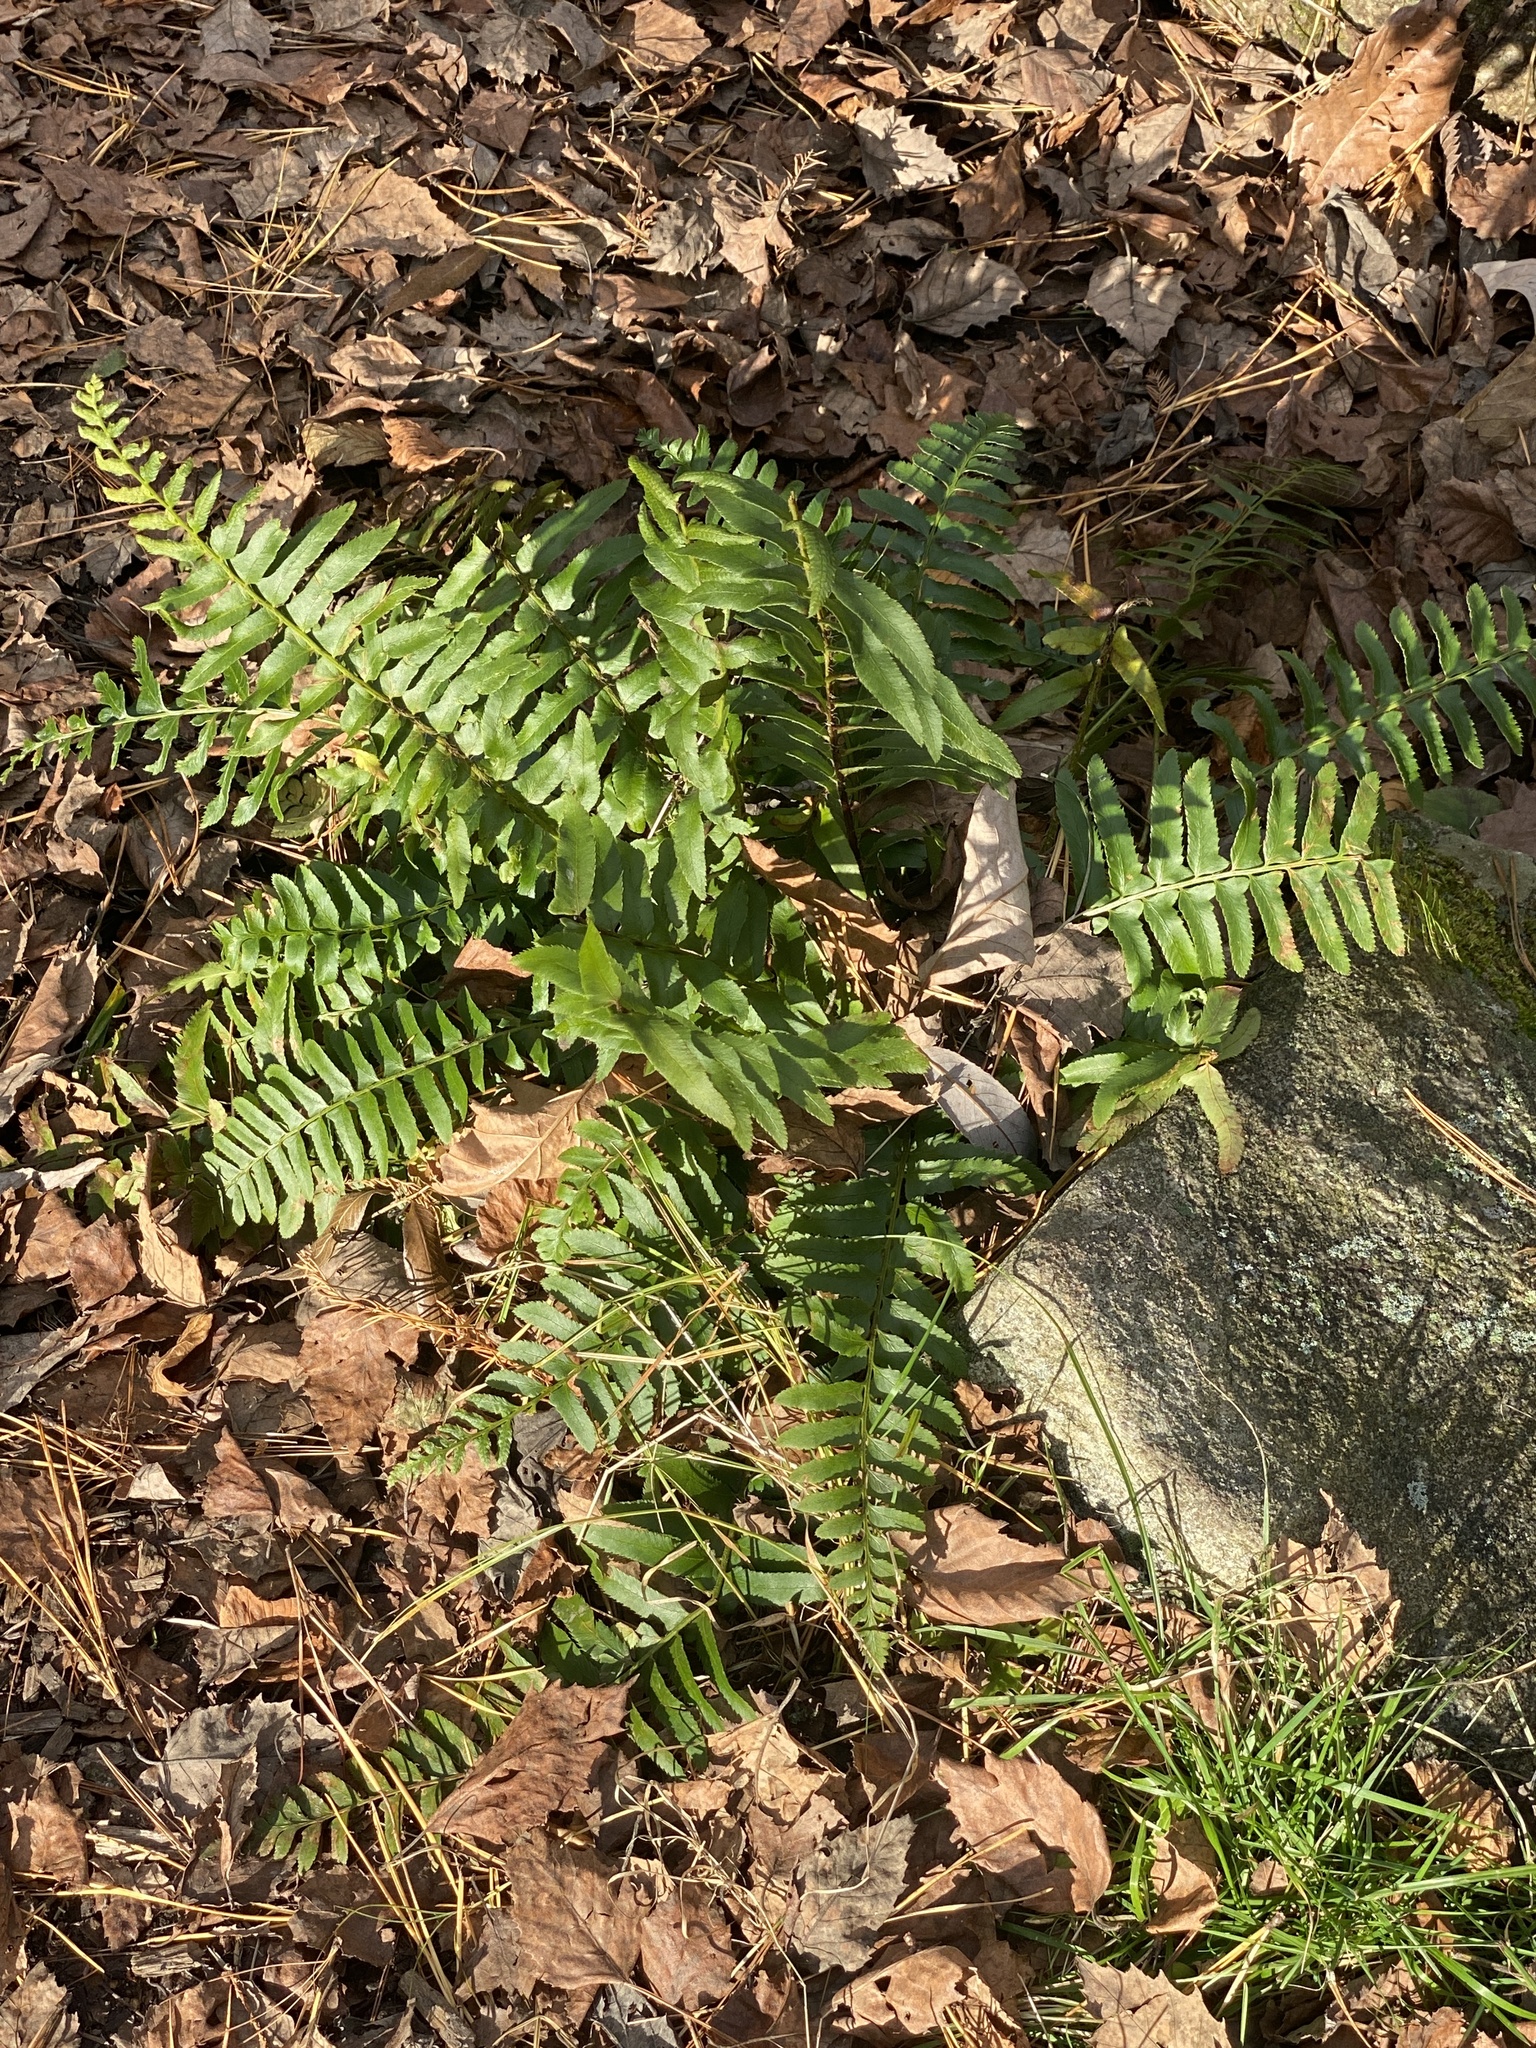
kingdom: Plantae
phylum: Tracheophyta
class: Polypodiopsida
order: Polypodiales
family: Dryopteridaceae
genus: Polystichum
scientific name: Polystichum acrostichoides
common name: Christmas fern
